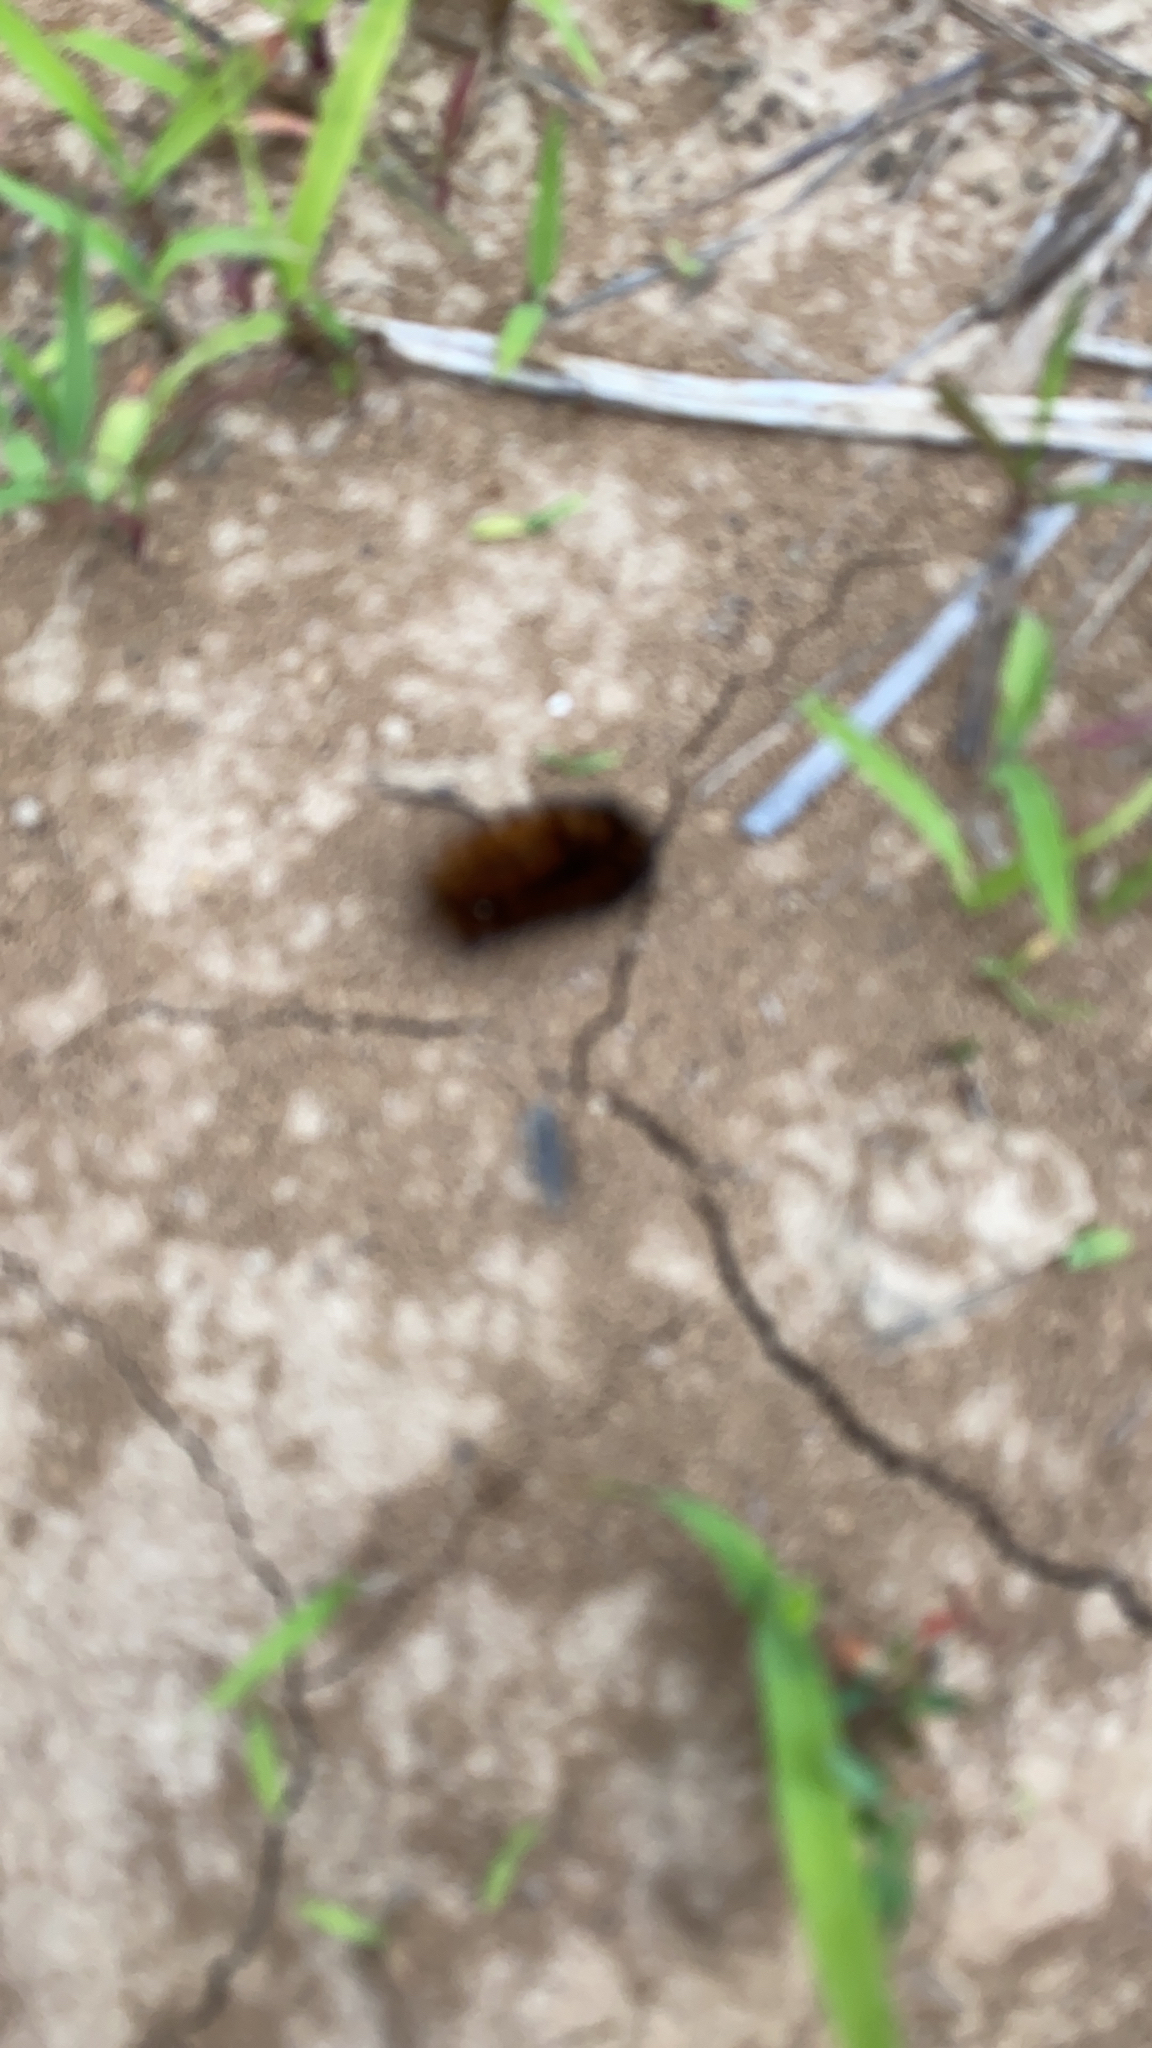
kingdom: Animalia
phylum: Arthropoda
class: Insecta
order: Lepidoptera
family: Erebidae
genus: Pyrrharctia
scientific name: Pyrrharctia isabella
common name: Isabella tiger moth
